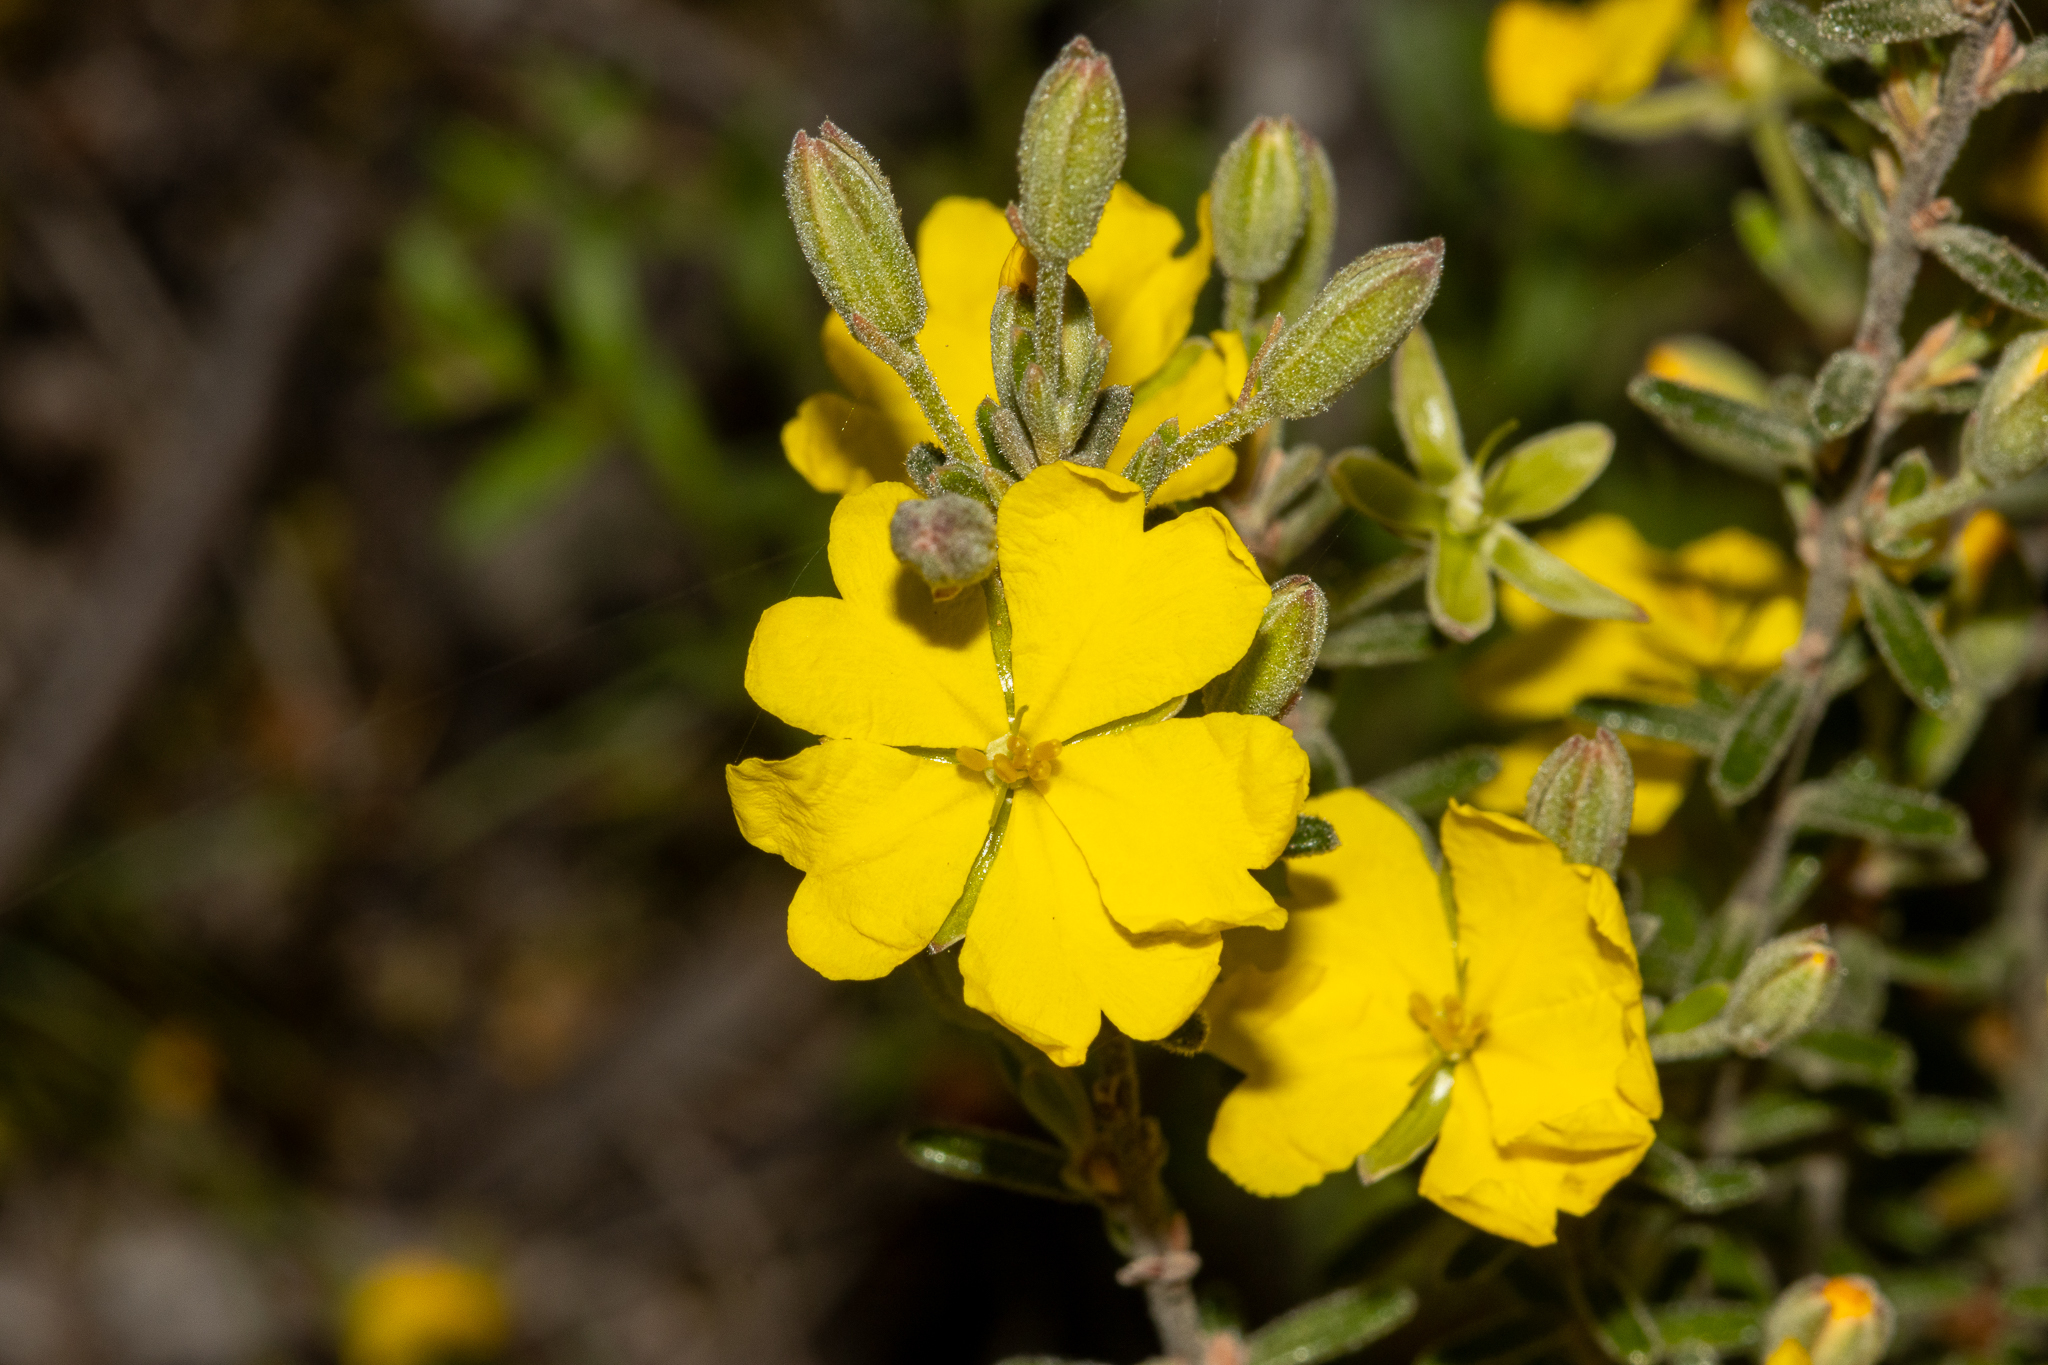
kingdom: Plantae
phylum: Tracheophyta
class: Magnoliopsida
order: Dilleniales
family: Dilleniaceae
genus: Hibbertia
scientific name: Hibbertia australis
